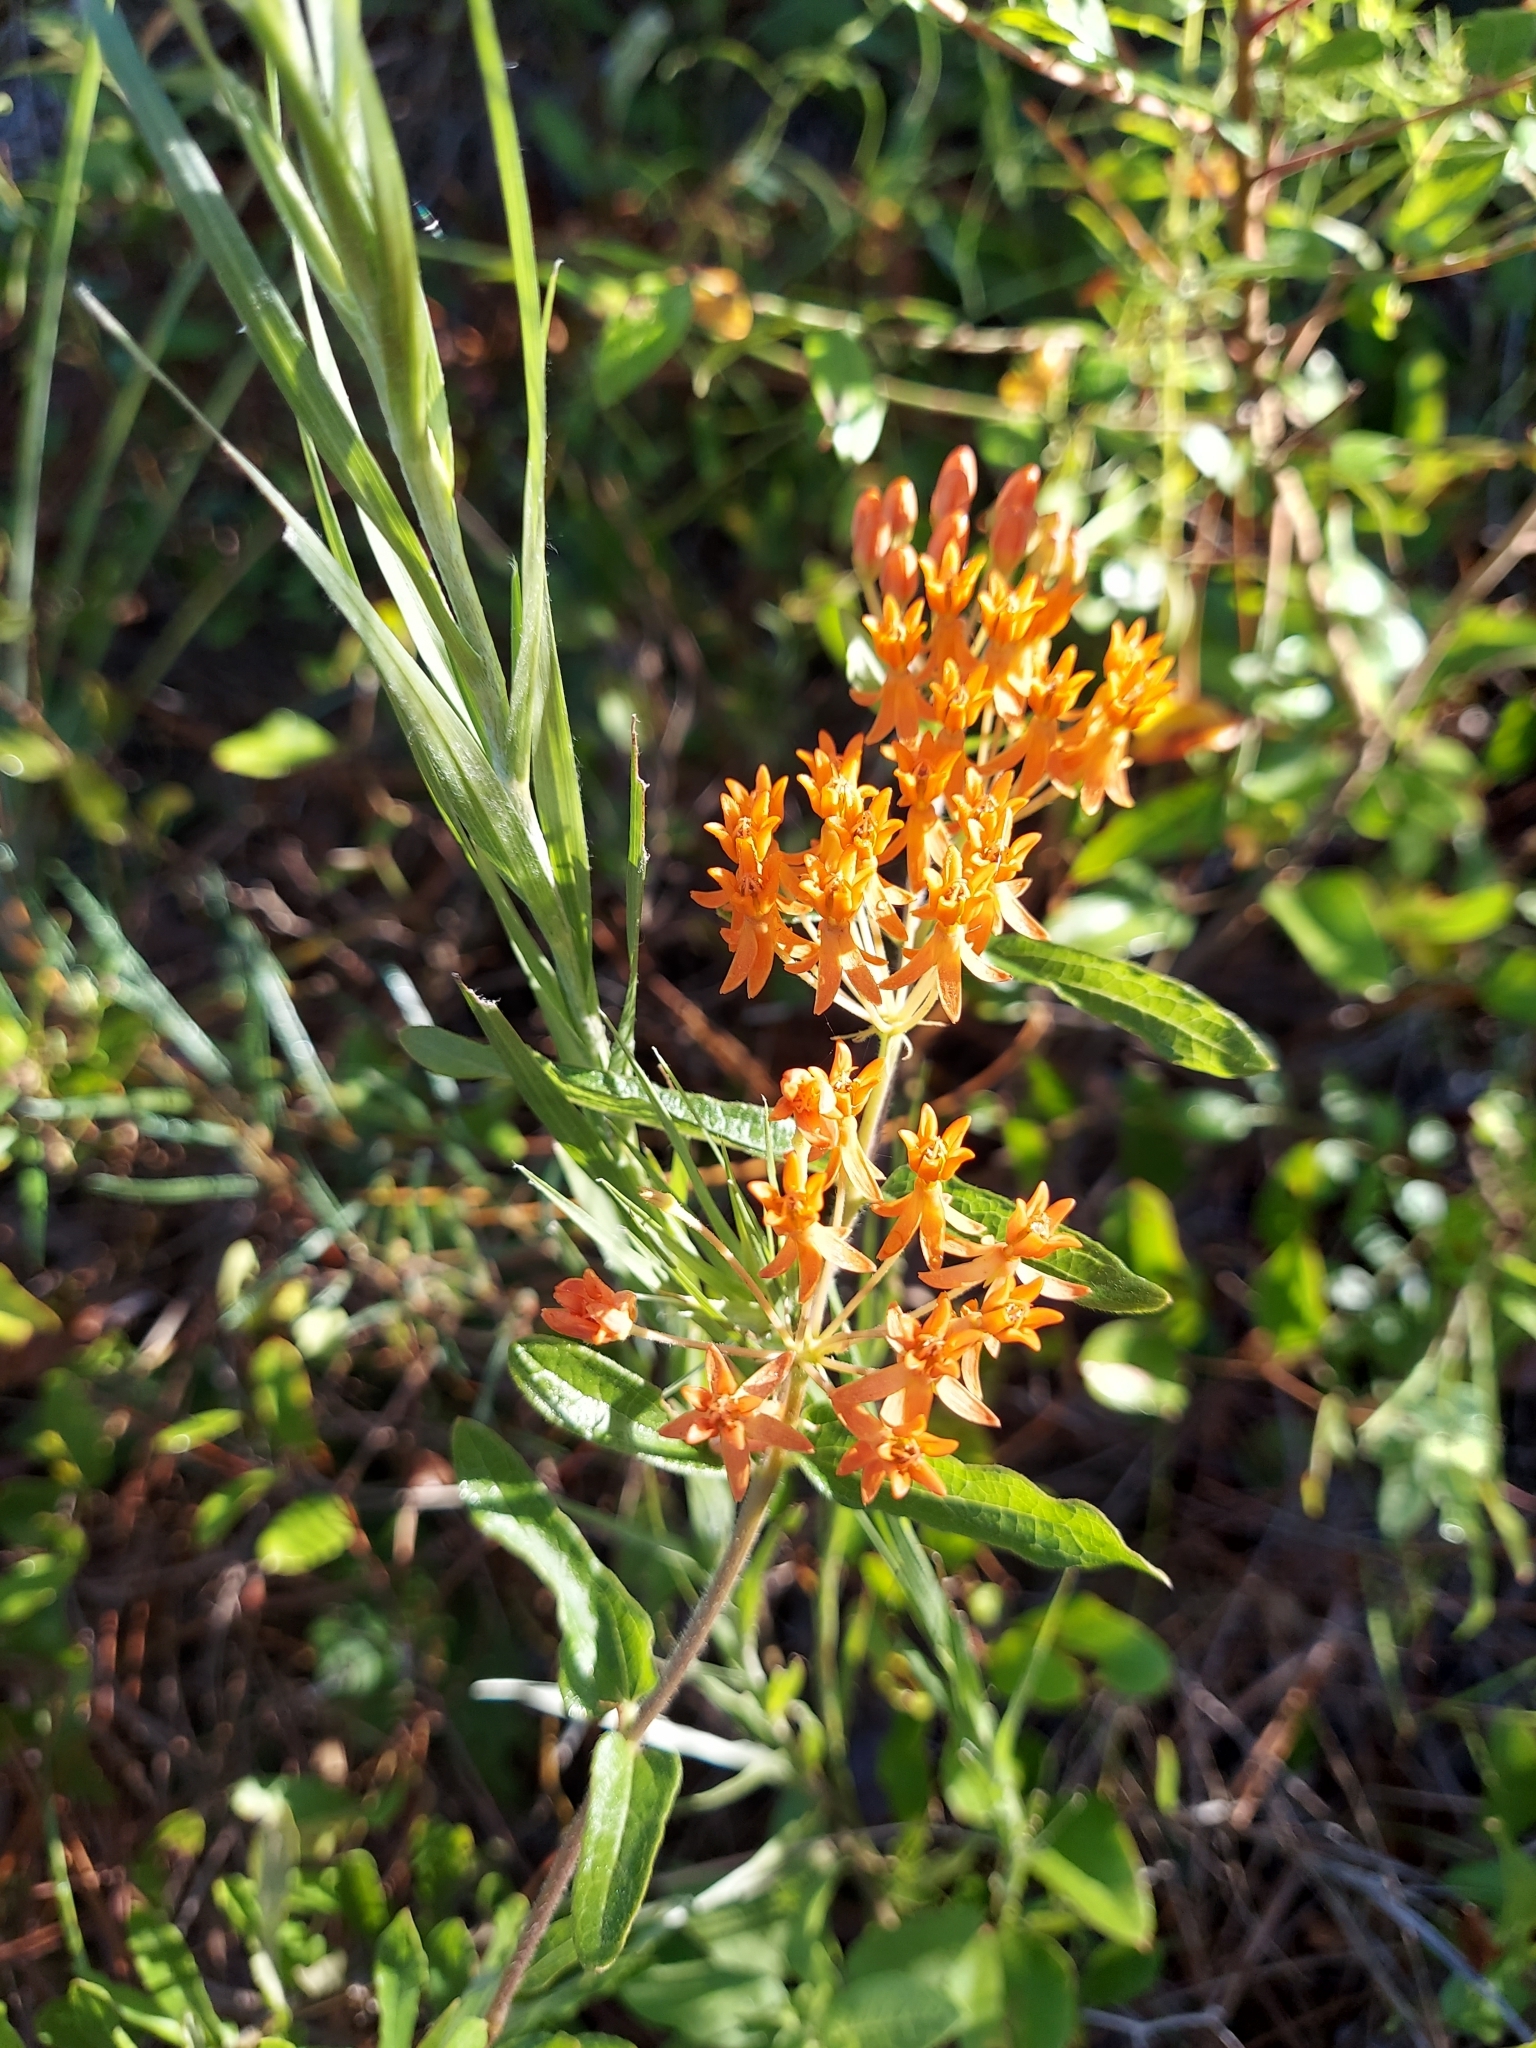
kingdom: Plantae
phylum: Tracheophyta
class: Magnoliopsida
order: Gentianales
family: Apocynaceae
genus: Asclepias
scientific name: Asclepias tuberosa
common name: Butterfly milkweed
